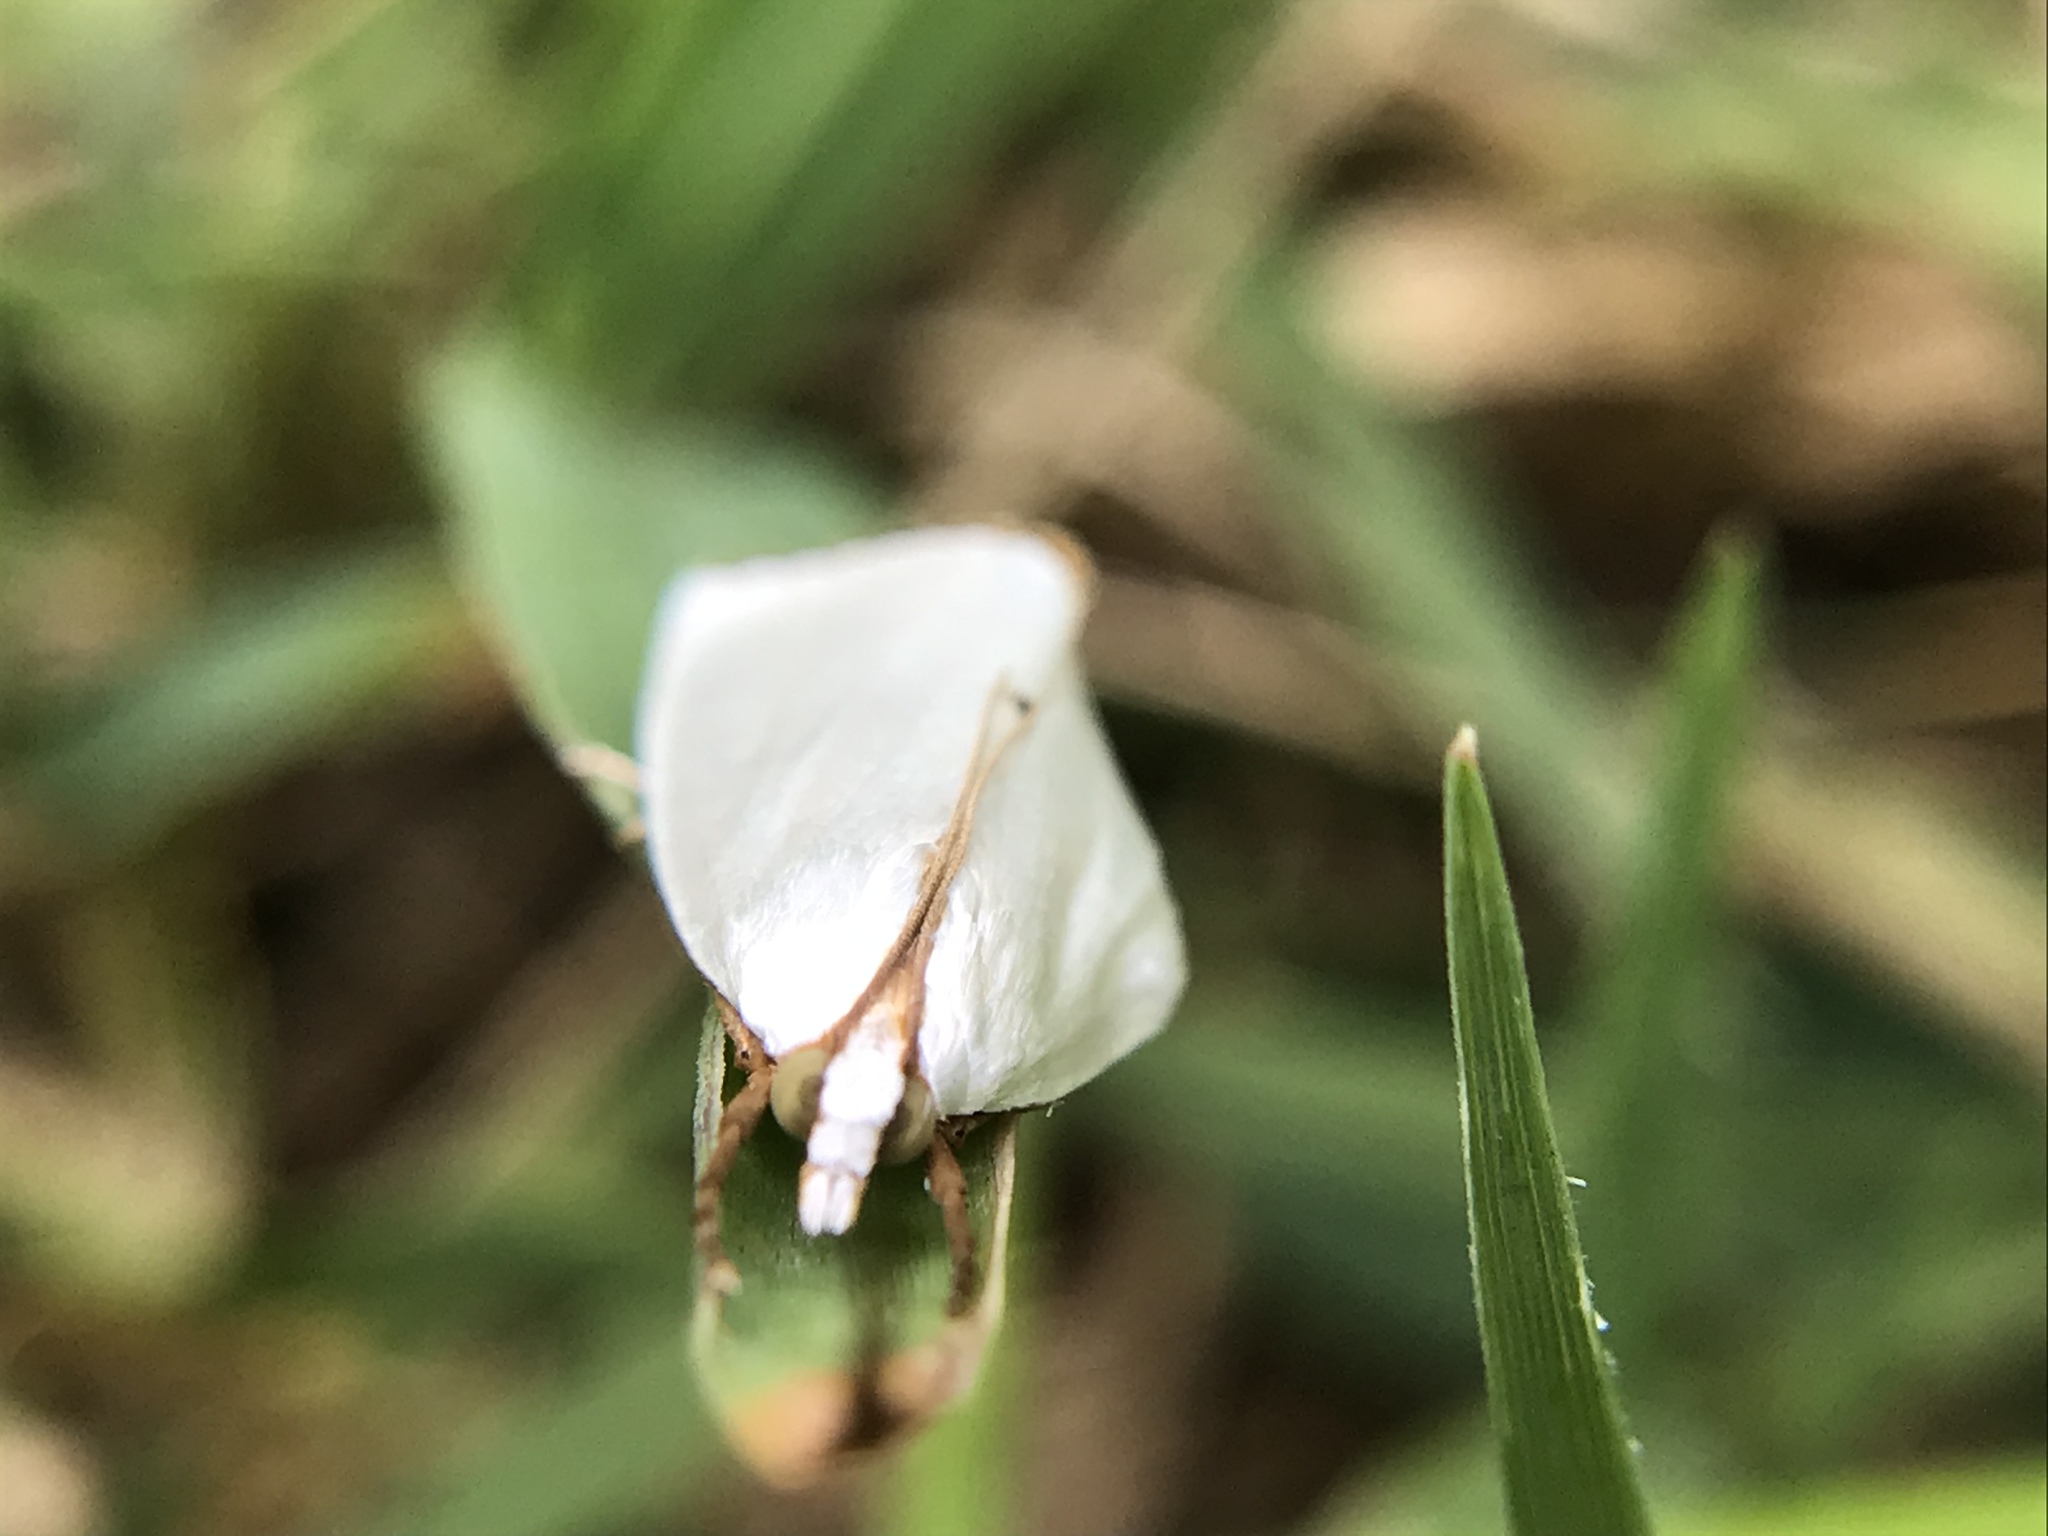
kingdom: Animalia
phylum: Arthropoda
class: Insecta
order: Lepidoptera
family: Crambidae
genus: Argyria
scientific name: Argyria nivalis
